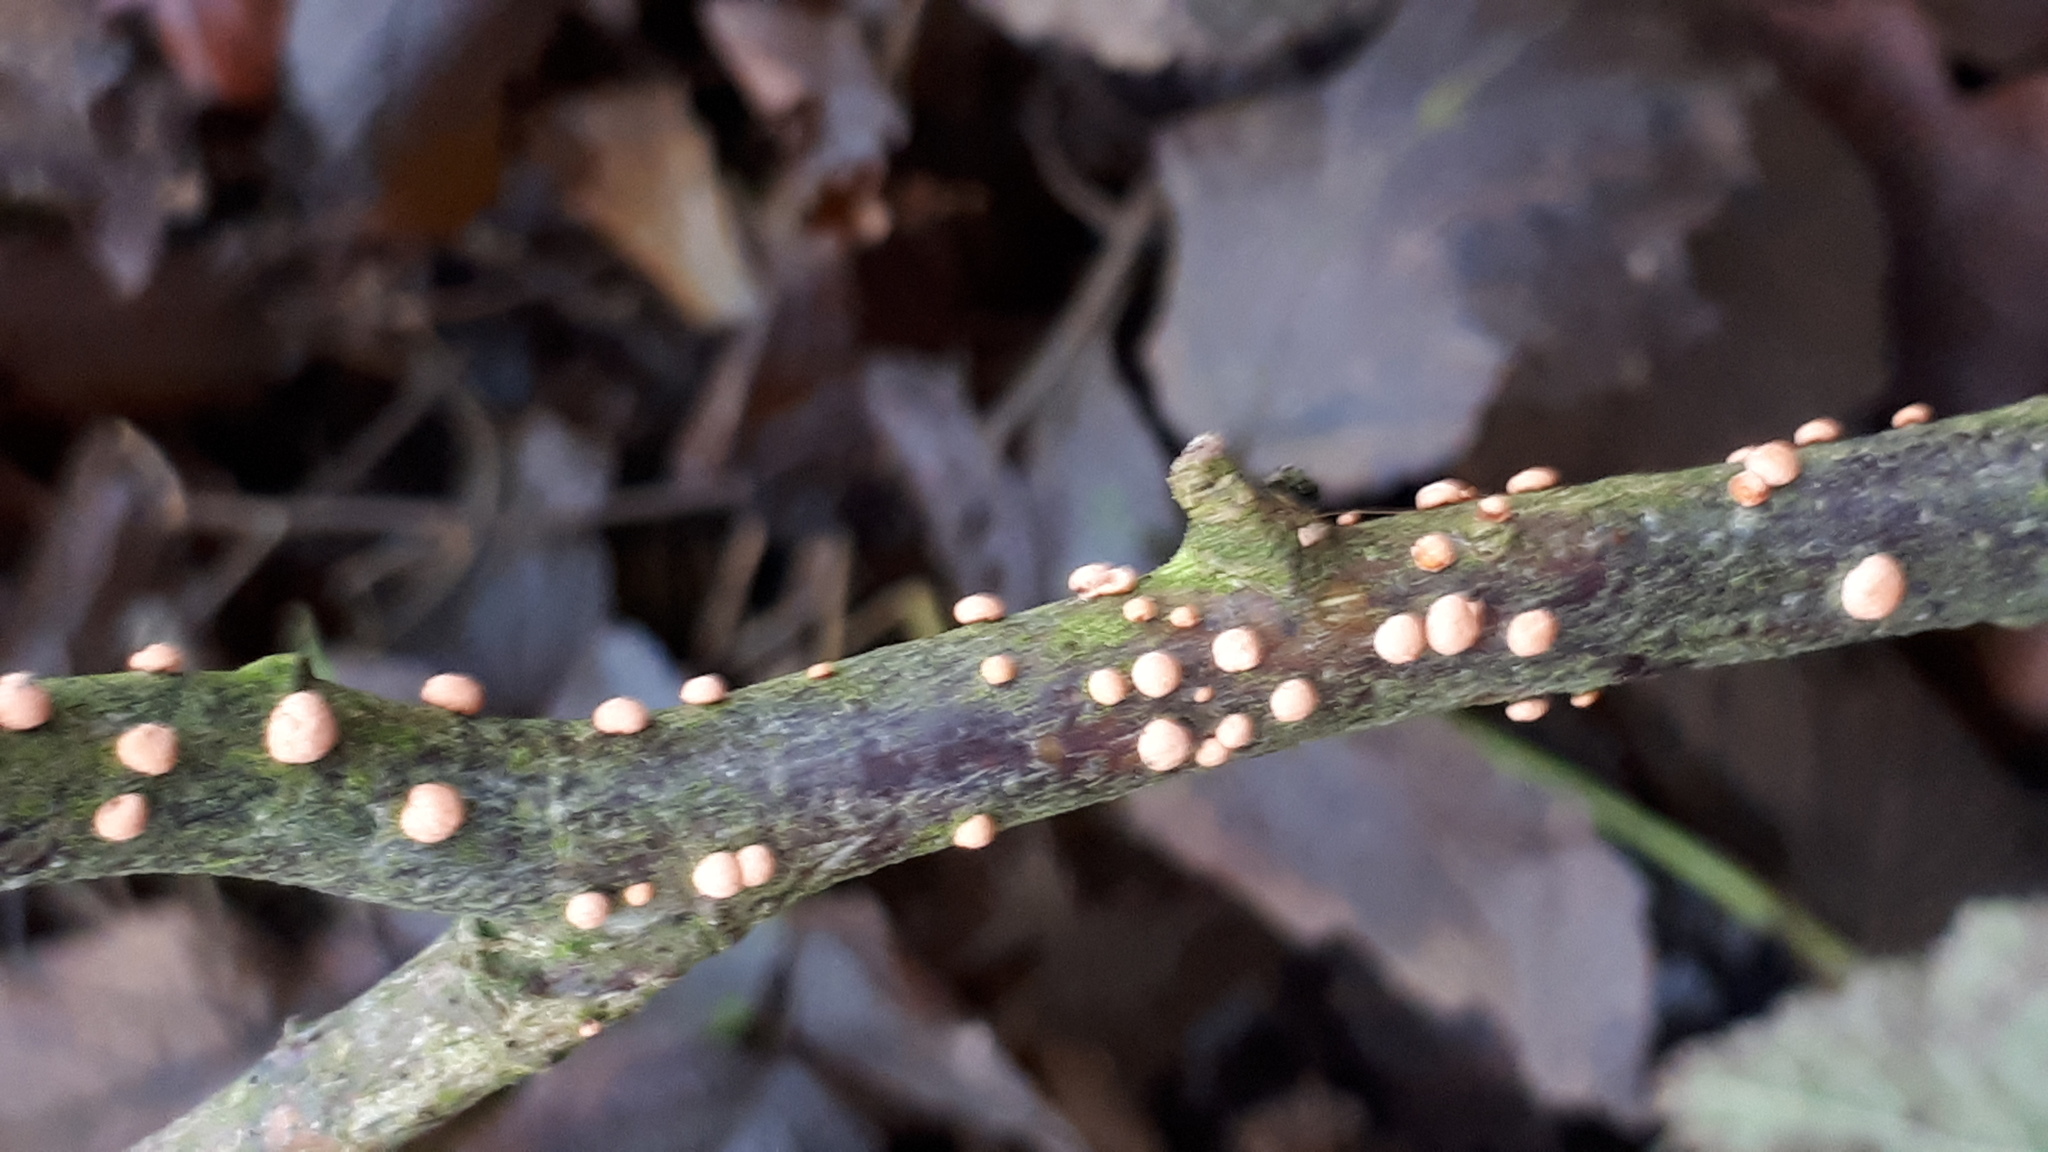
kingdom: Fungi
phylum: Ascomycota
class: Sordariomycetes
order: Hypocreales
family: Nectriaceae
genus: Nectria
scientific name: Nectria cinnabarina
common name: Coral spot
